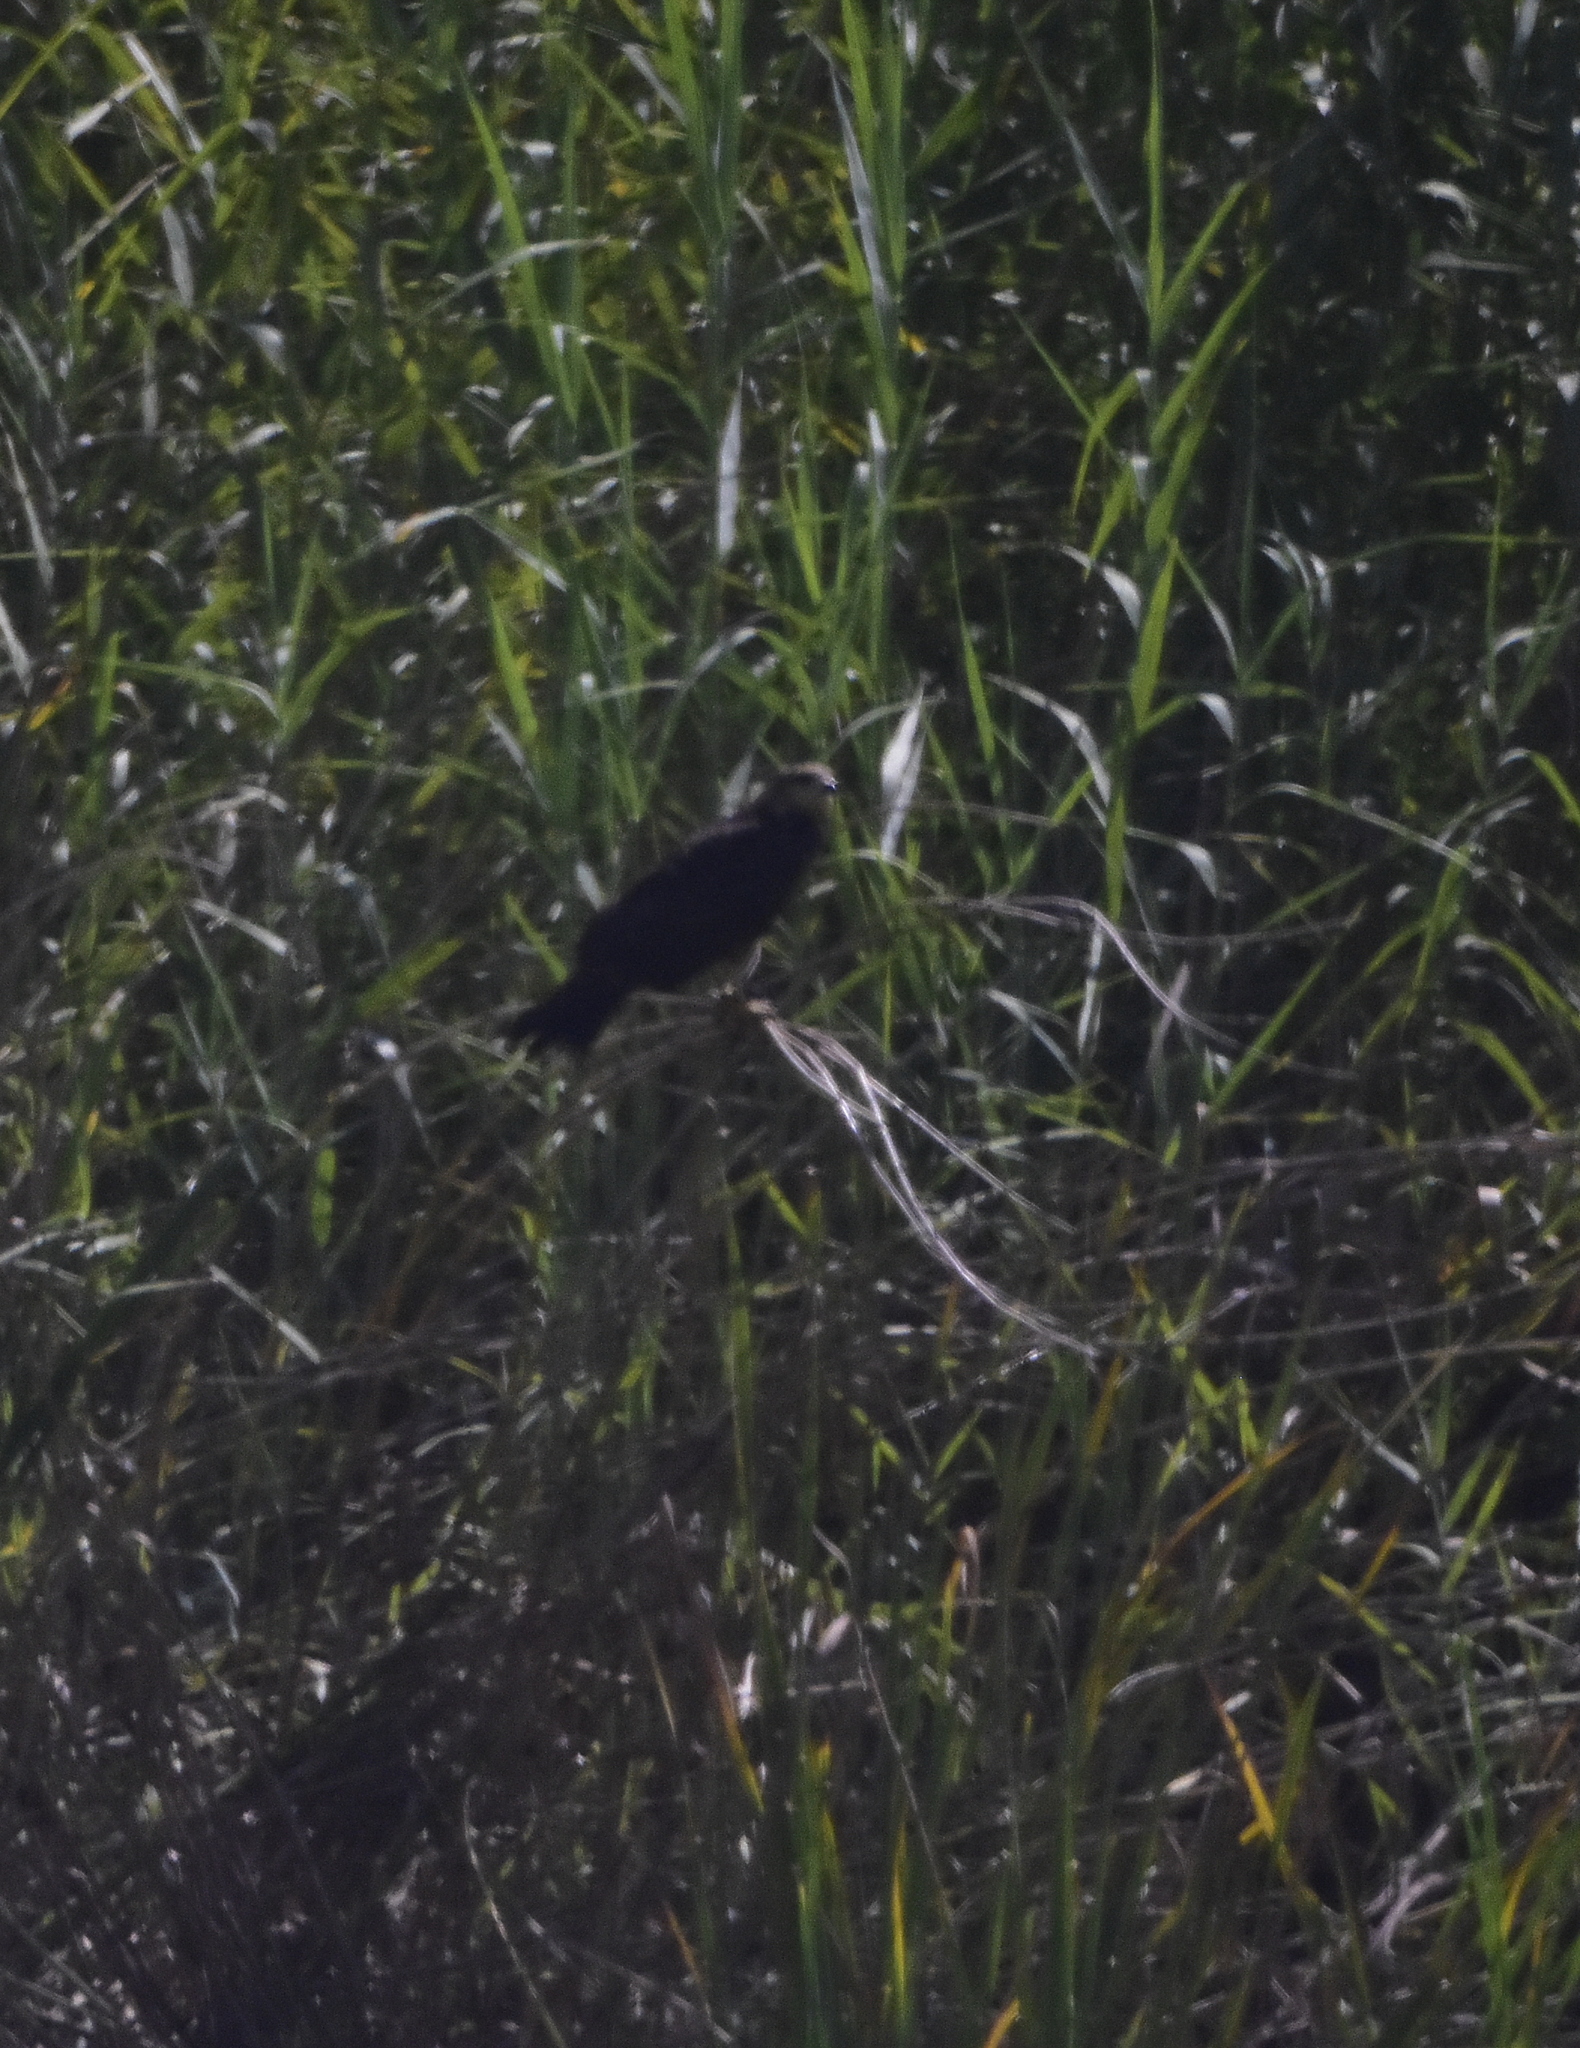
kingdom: Animalia
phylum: Chordata
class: Aves
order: Accipitriformes
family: Accipitridae
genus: Rostrhamus
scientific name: Rostrhamus sociabilis
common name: Snail kite
